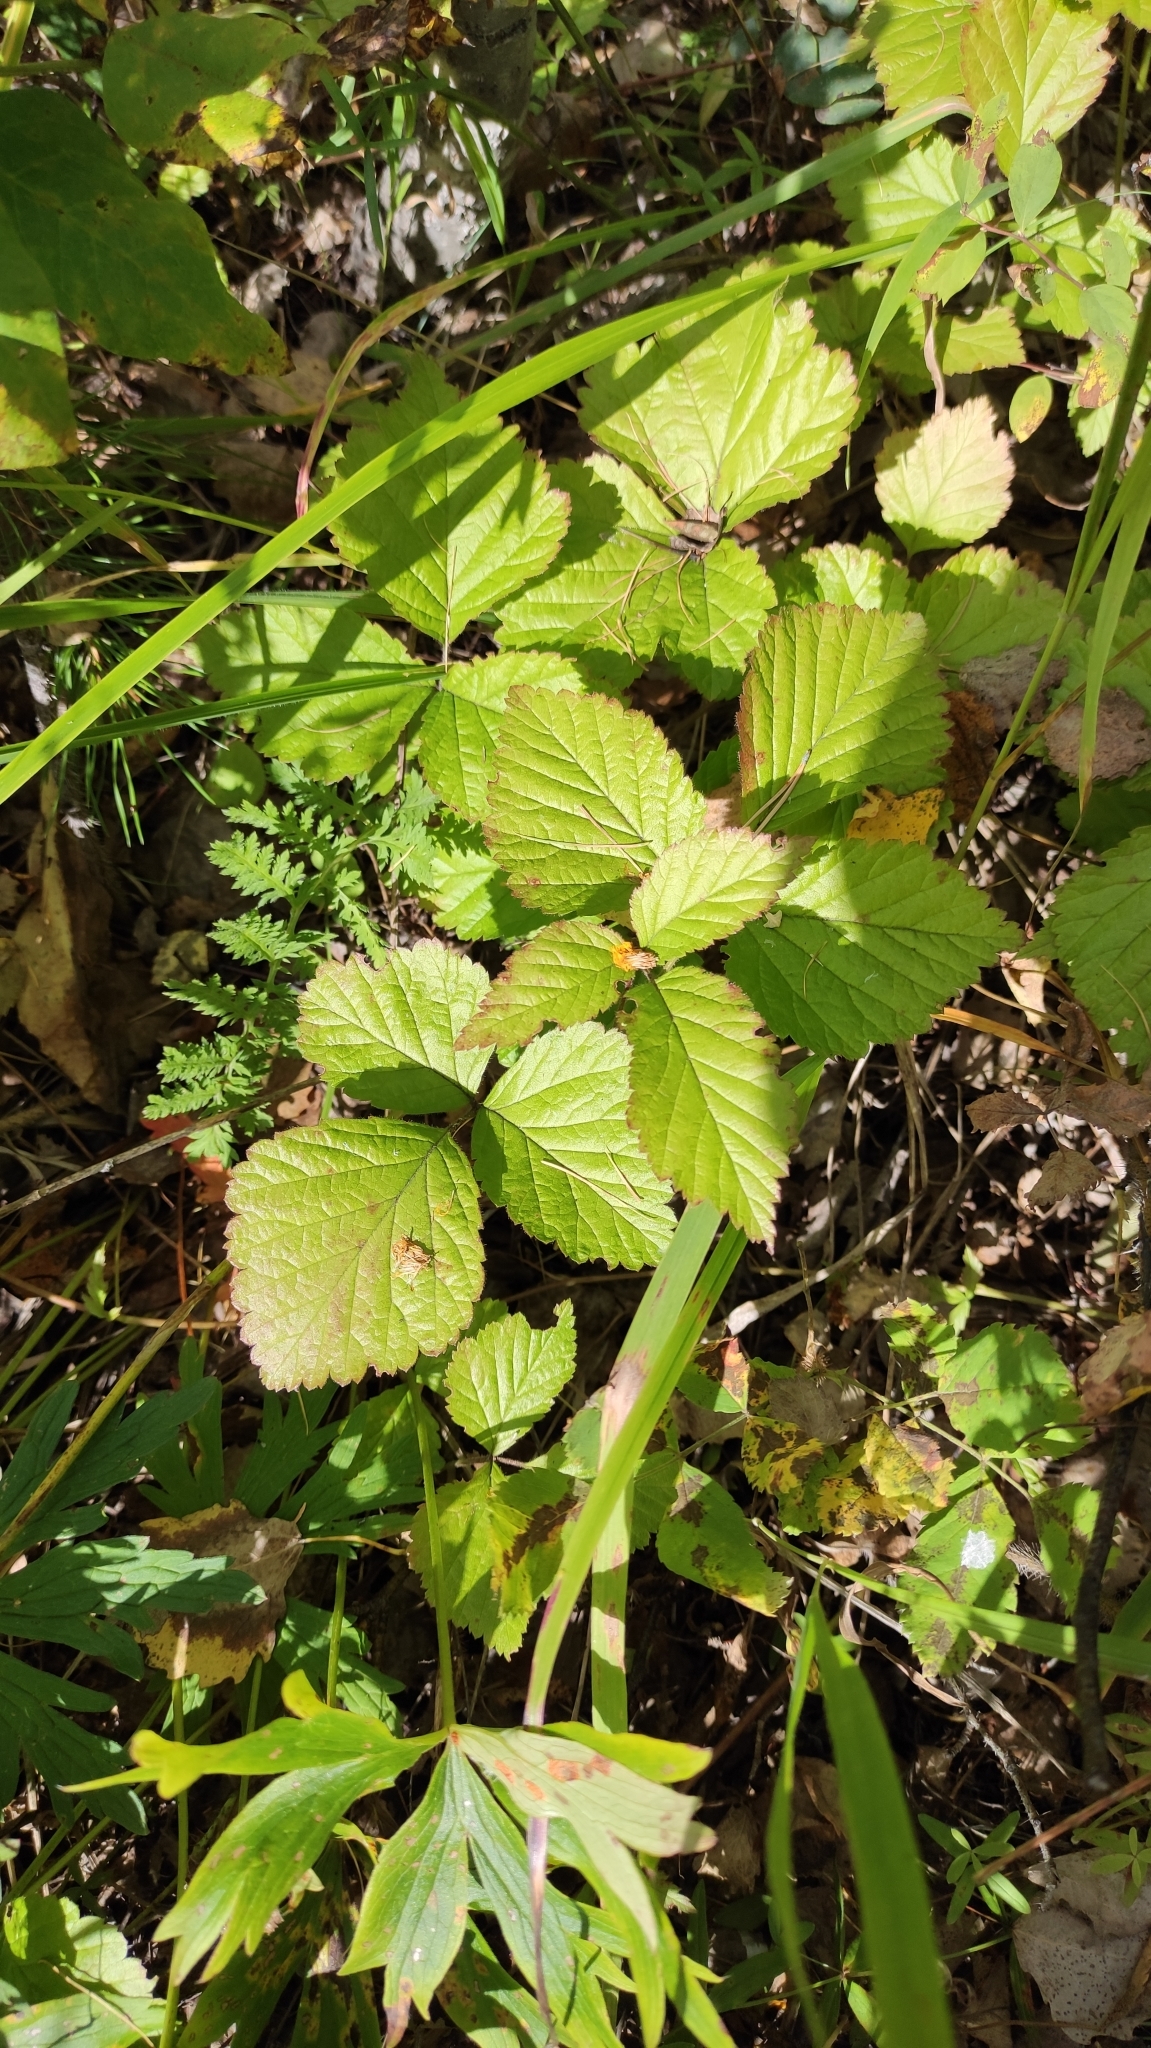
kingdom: Plantae
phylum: Tracheophyta
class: Magnoliopsida
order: Rosales
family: Rosaceae
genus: Rubus
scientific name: Rubus saxatilis
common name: Stone bramble
